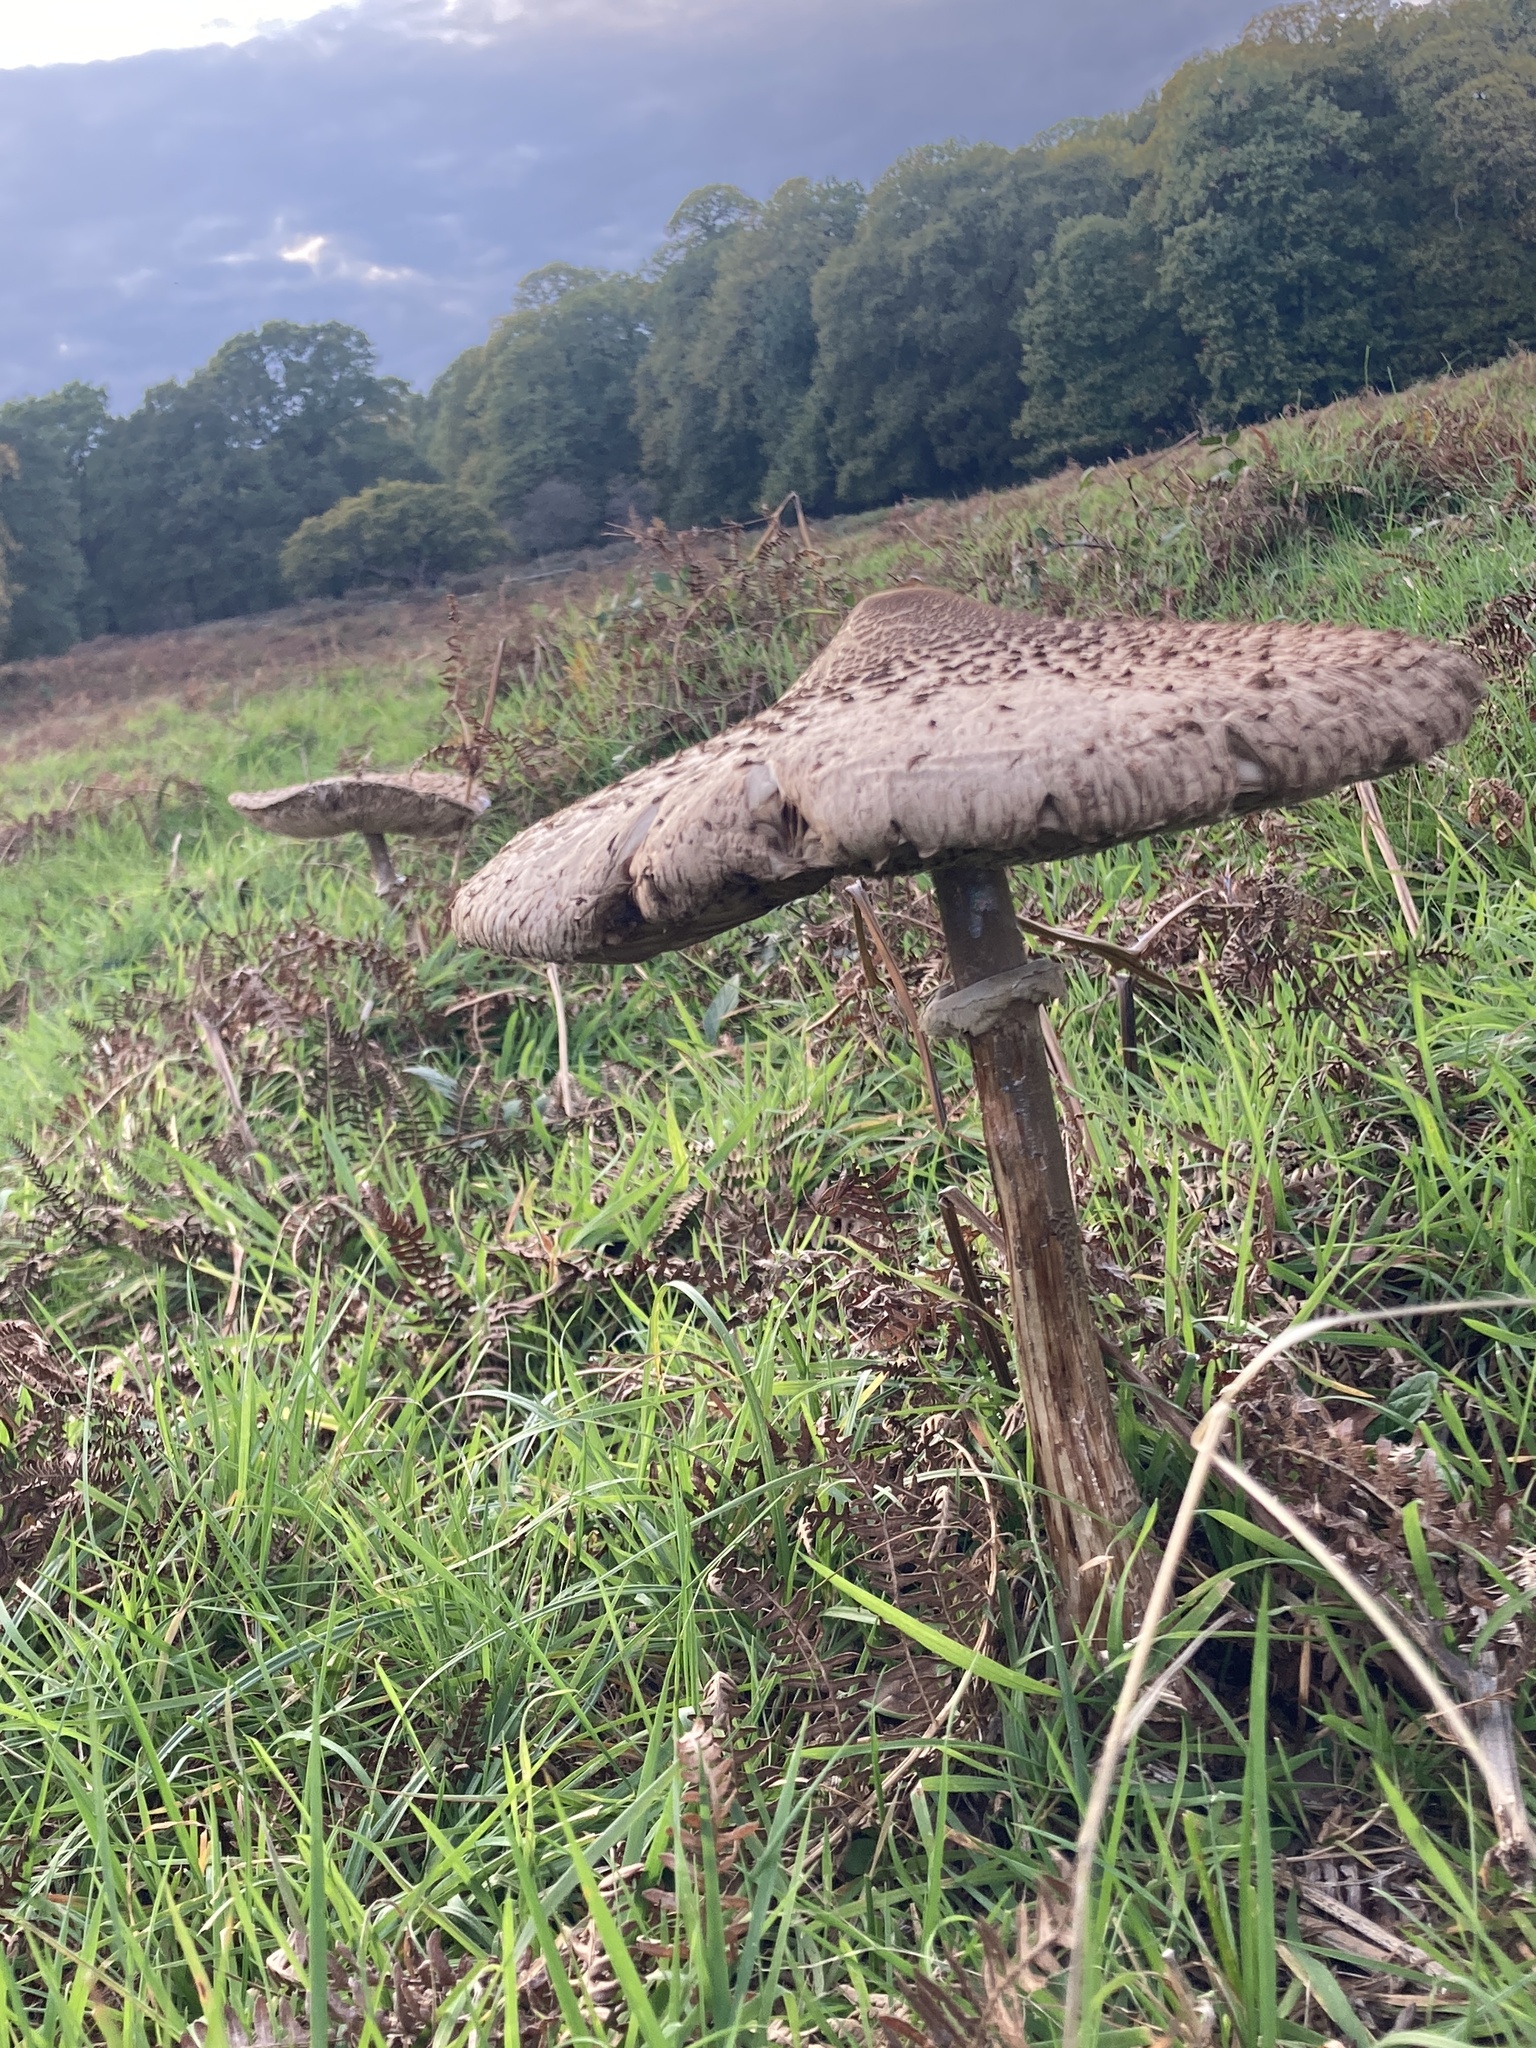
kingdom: Fungi
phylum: Basidiomycota
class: Agaricomycetes
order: Agaricales
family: Agaricaceae
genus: Macrolepiota
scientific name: Macrolepiota procera
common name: Parasol
